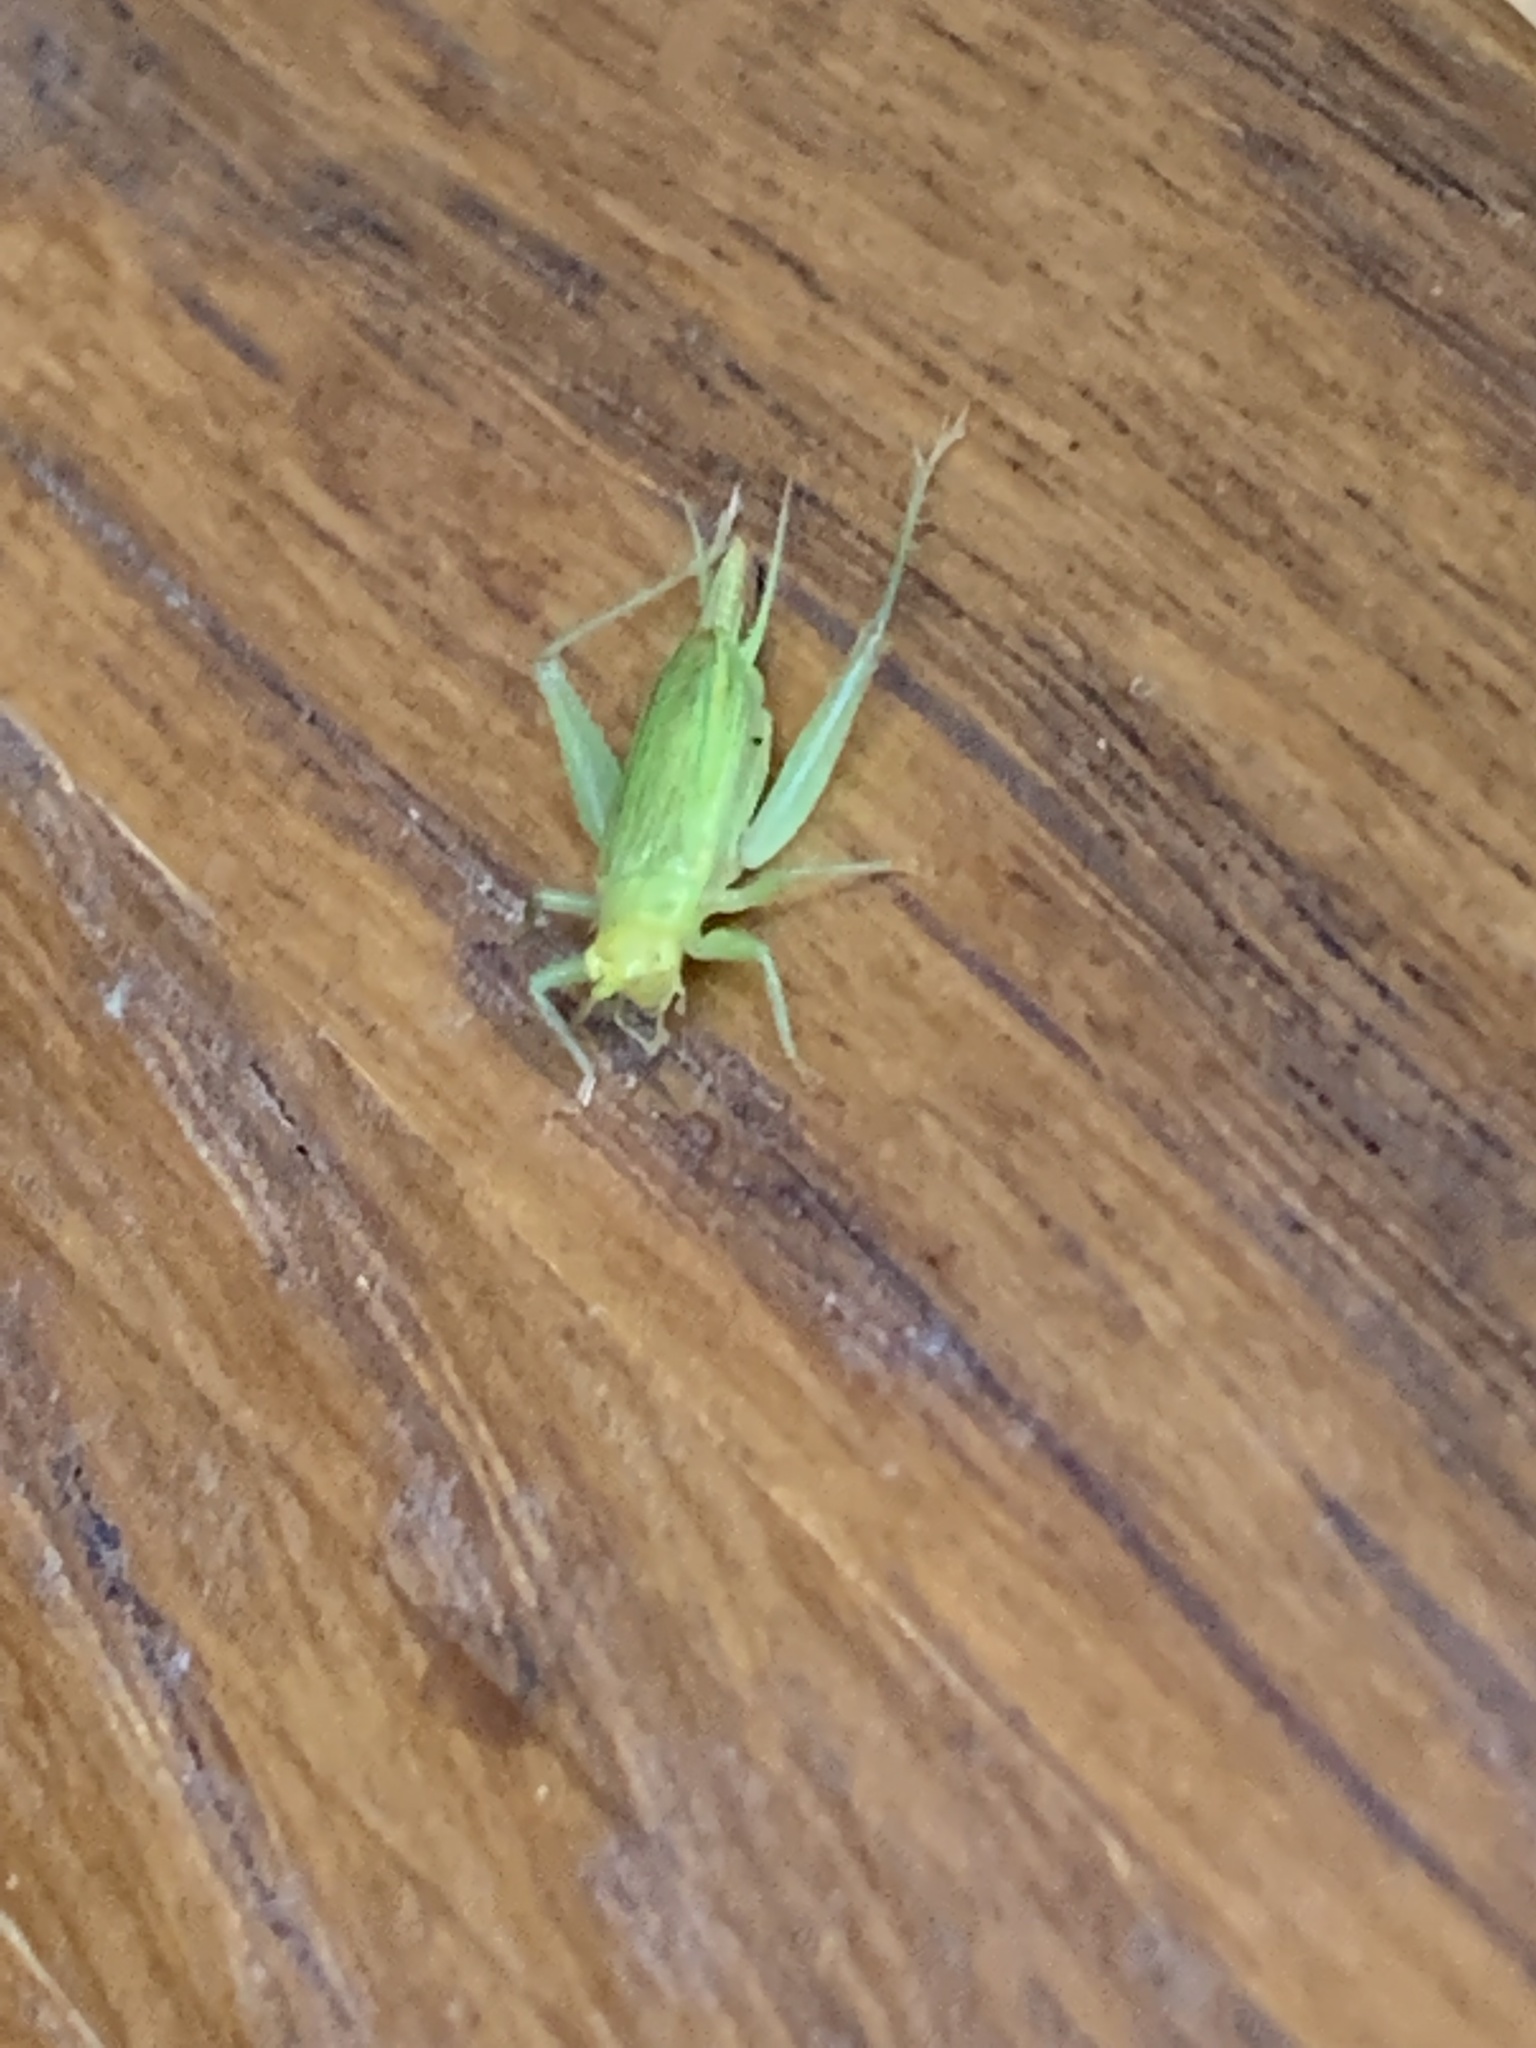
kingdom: Animalia
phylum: Arthropoda
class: Insecta
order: Orthoptera
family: Trigonidiidae
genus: Cyrtoxipha
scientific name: Cyrtoxipha columbiana
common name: Columbian trig
